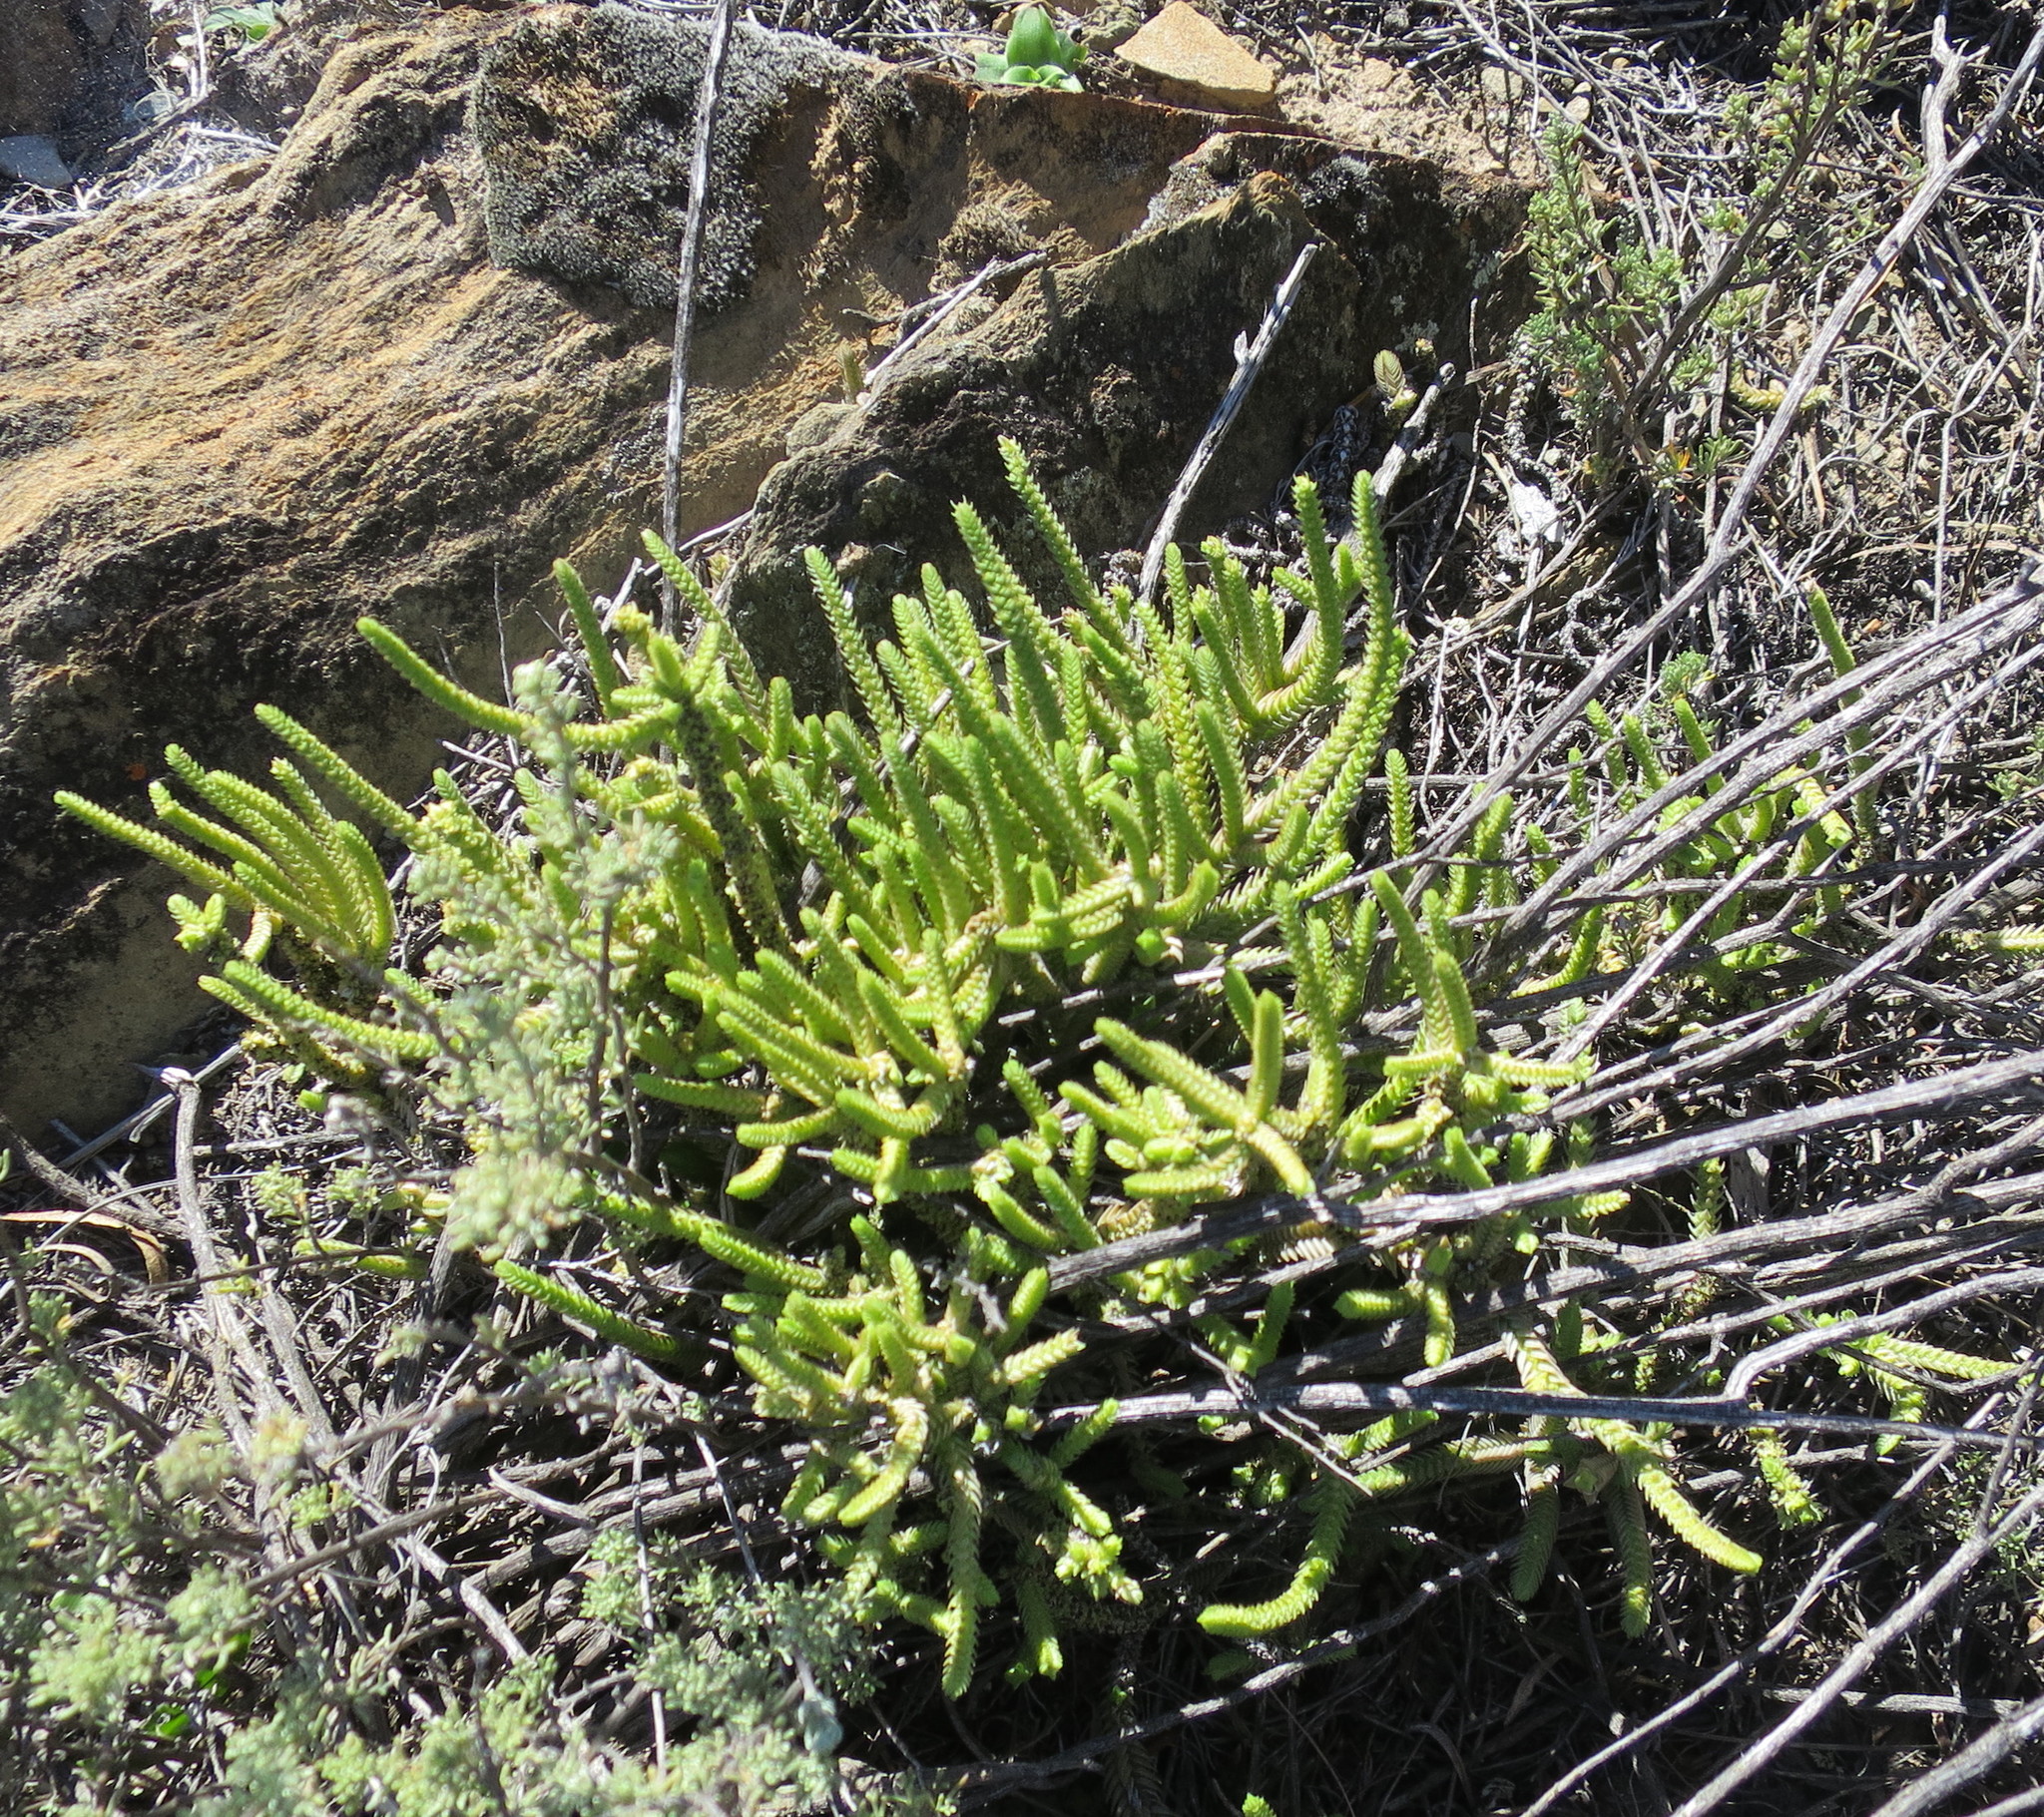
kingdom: Plantae
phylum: Tracheophyta
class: Magnoliopsida
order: Saxifragales
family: Crassulaceae
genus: Crassula
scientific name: Crassula muscosa
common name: Toy-cypress
